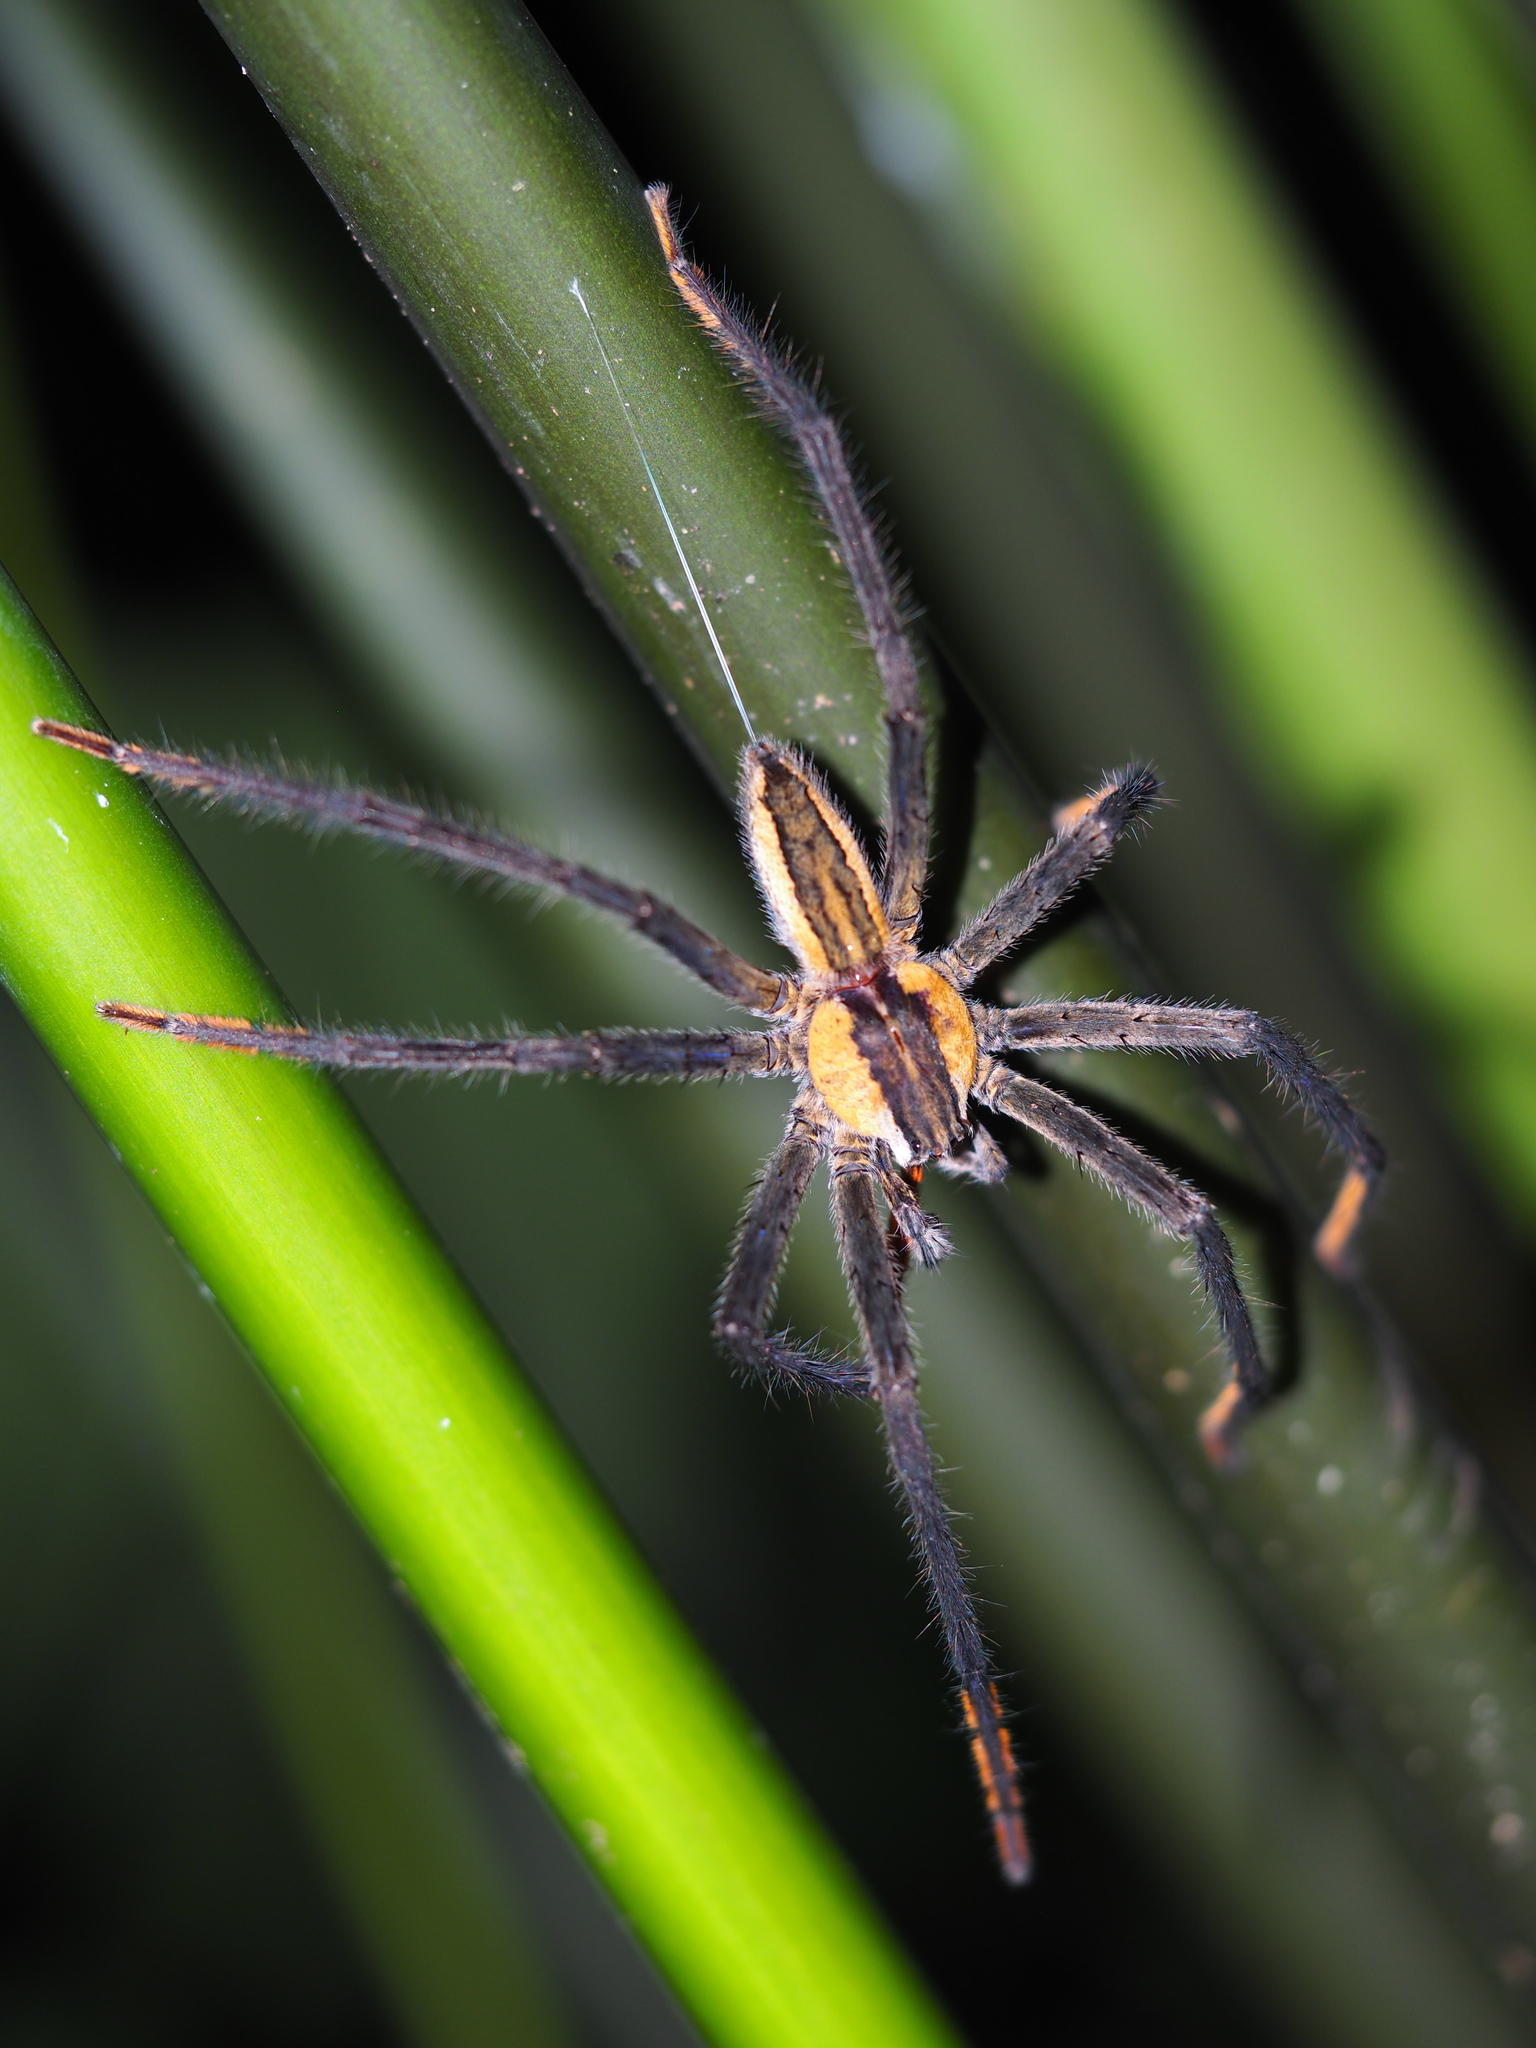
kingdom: Animalia
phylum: Arthropoda
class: Arachnida
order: Araneae
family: Trechaleidae
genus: Cupiennius
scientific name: Cupiennius getazi
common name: Wandering spiders
